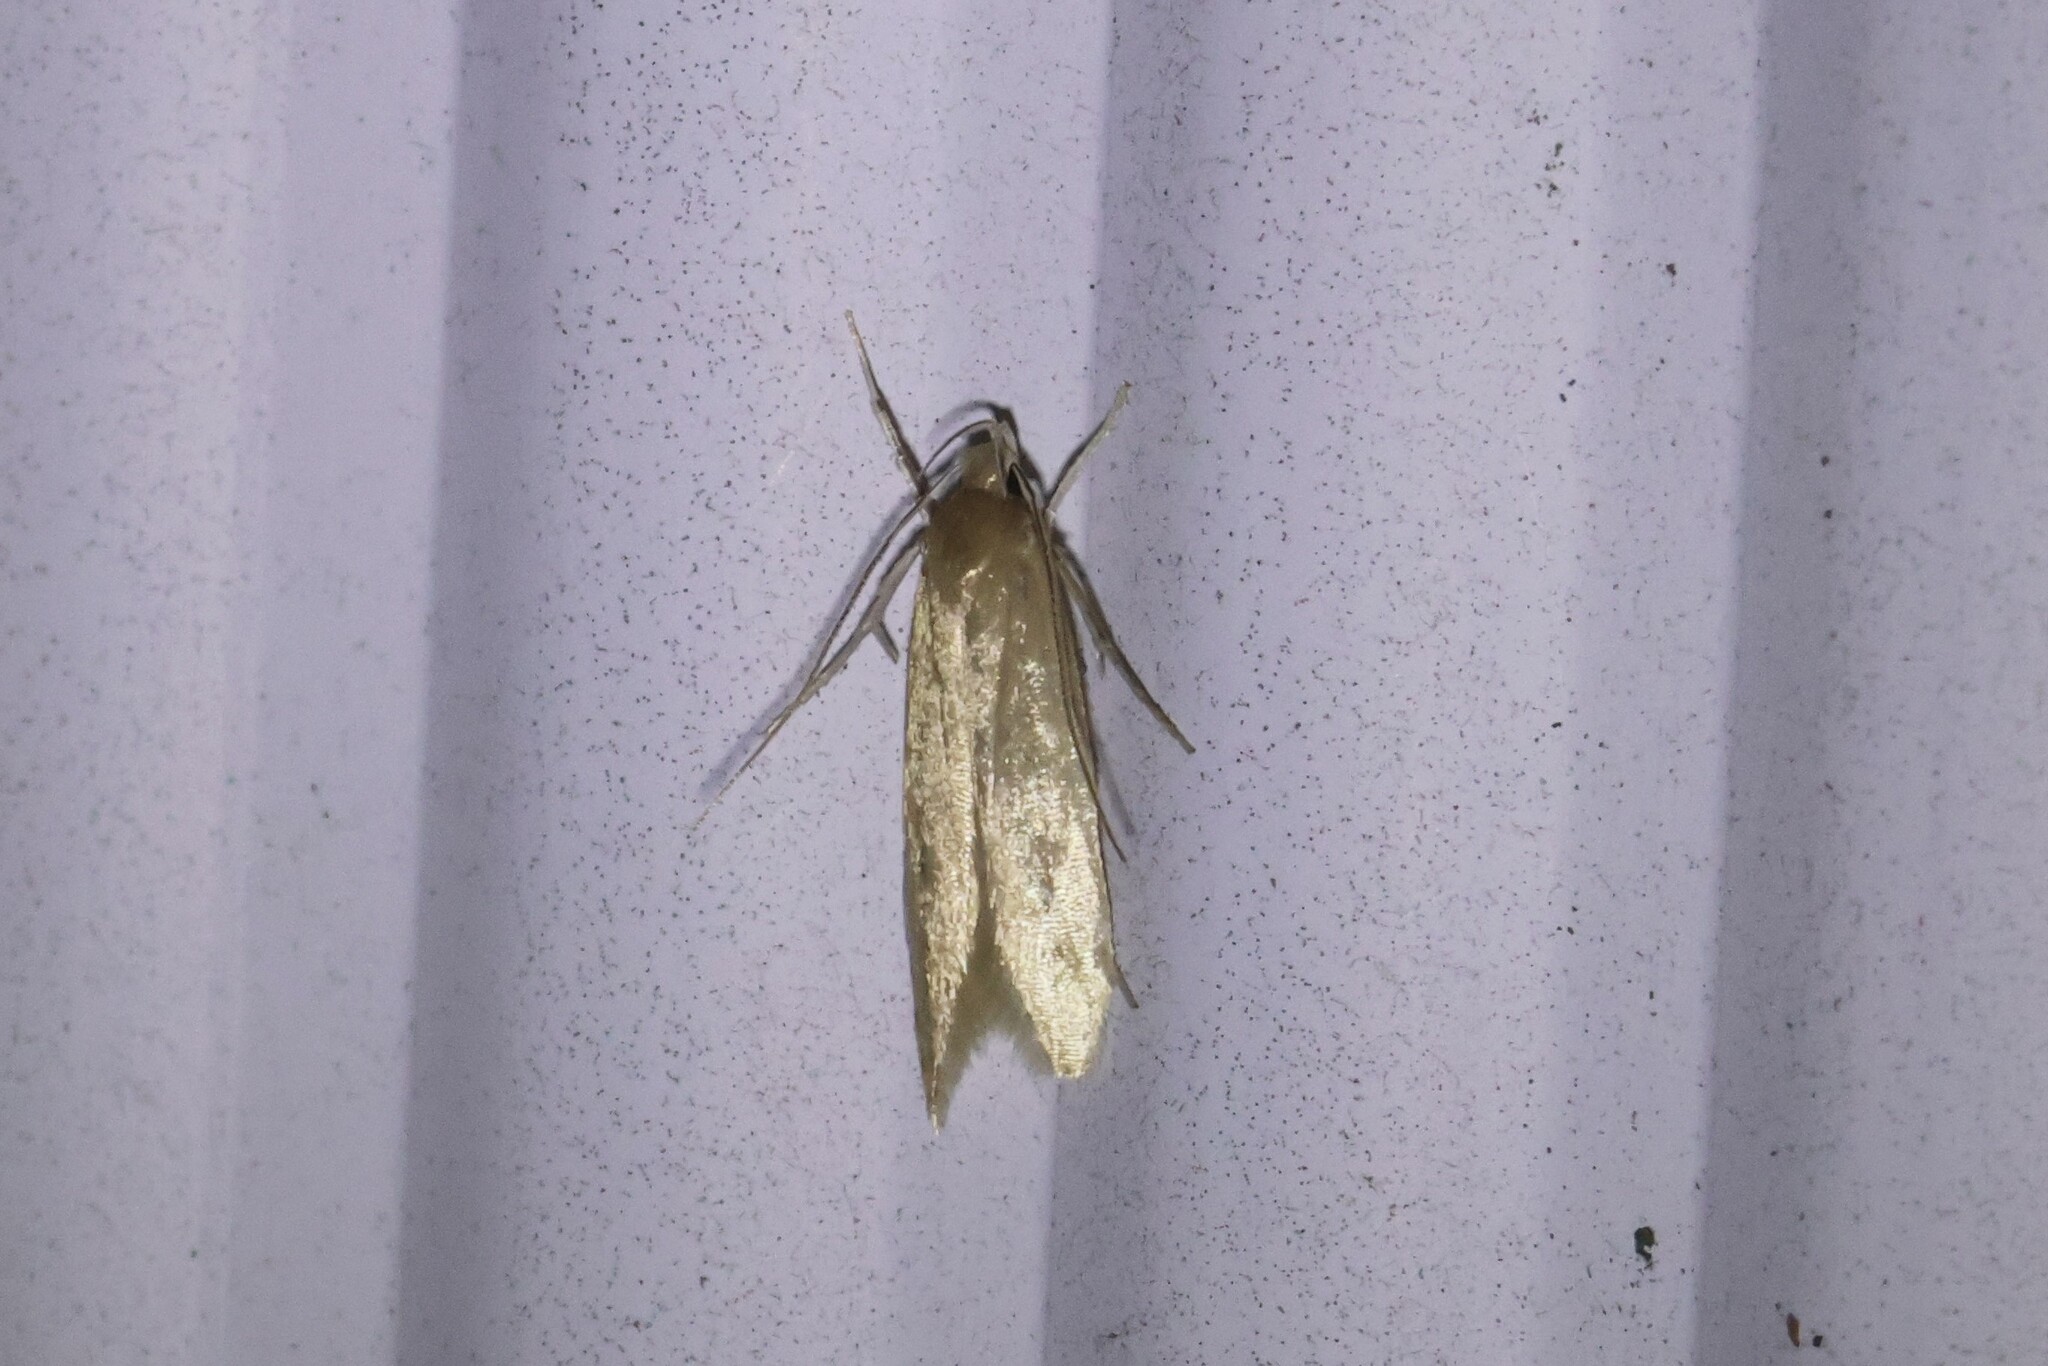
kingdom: Animalia
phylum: Arthropoda
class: Insecta
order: Lepidoptera
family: Cosmopterigidae
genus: Limnaecia
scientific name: Limnaecia phragmitella
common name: Bulrush cosmet
